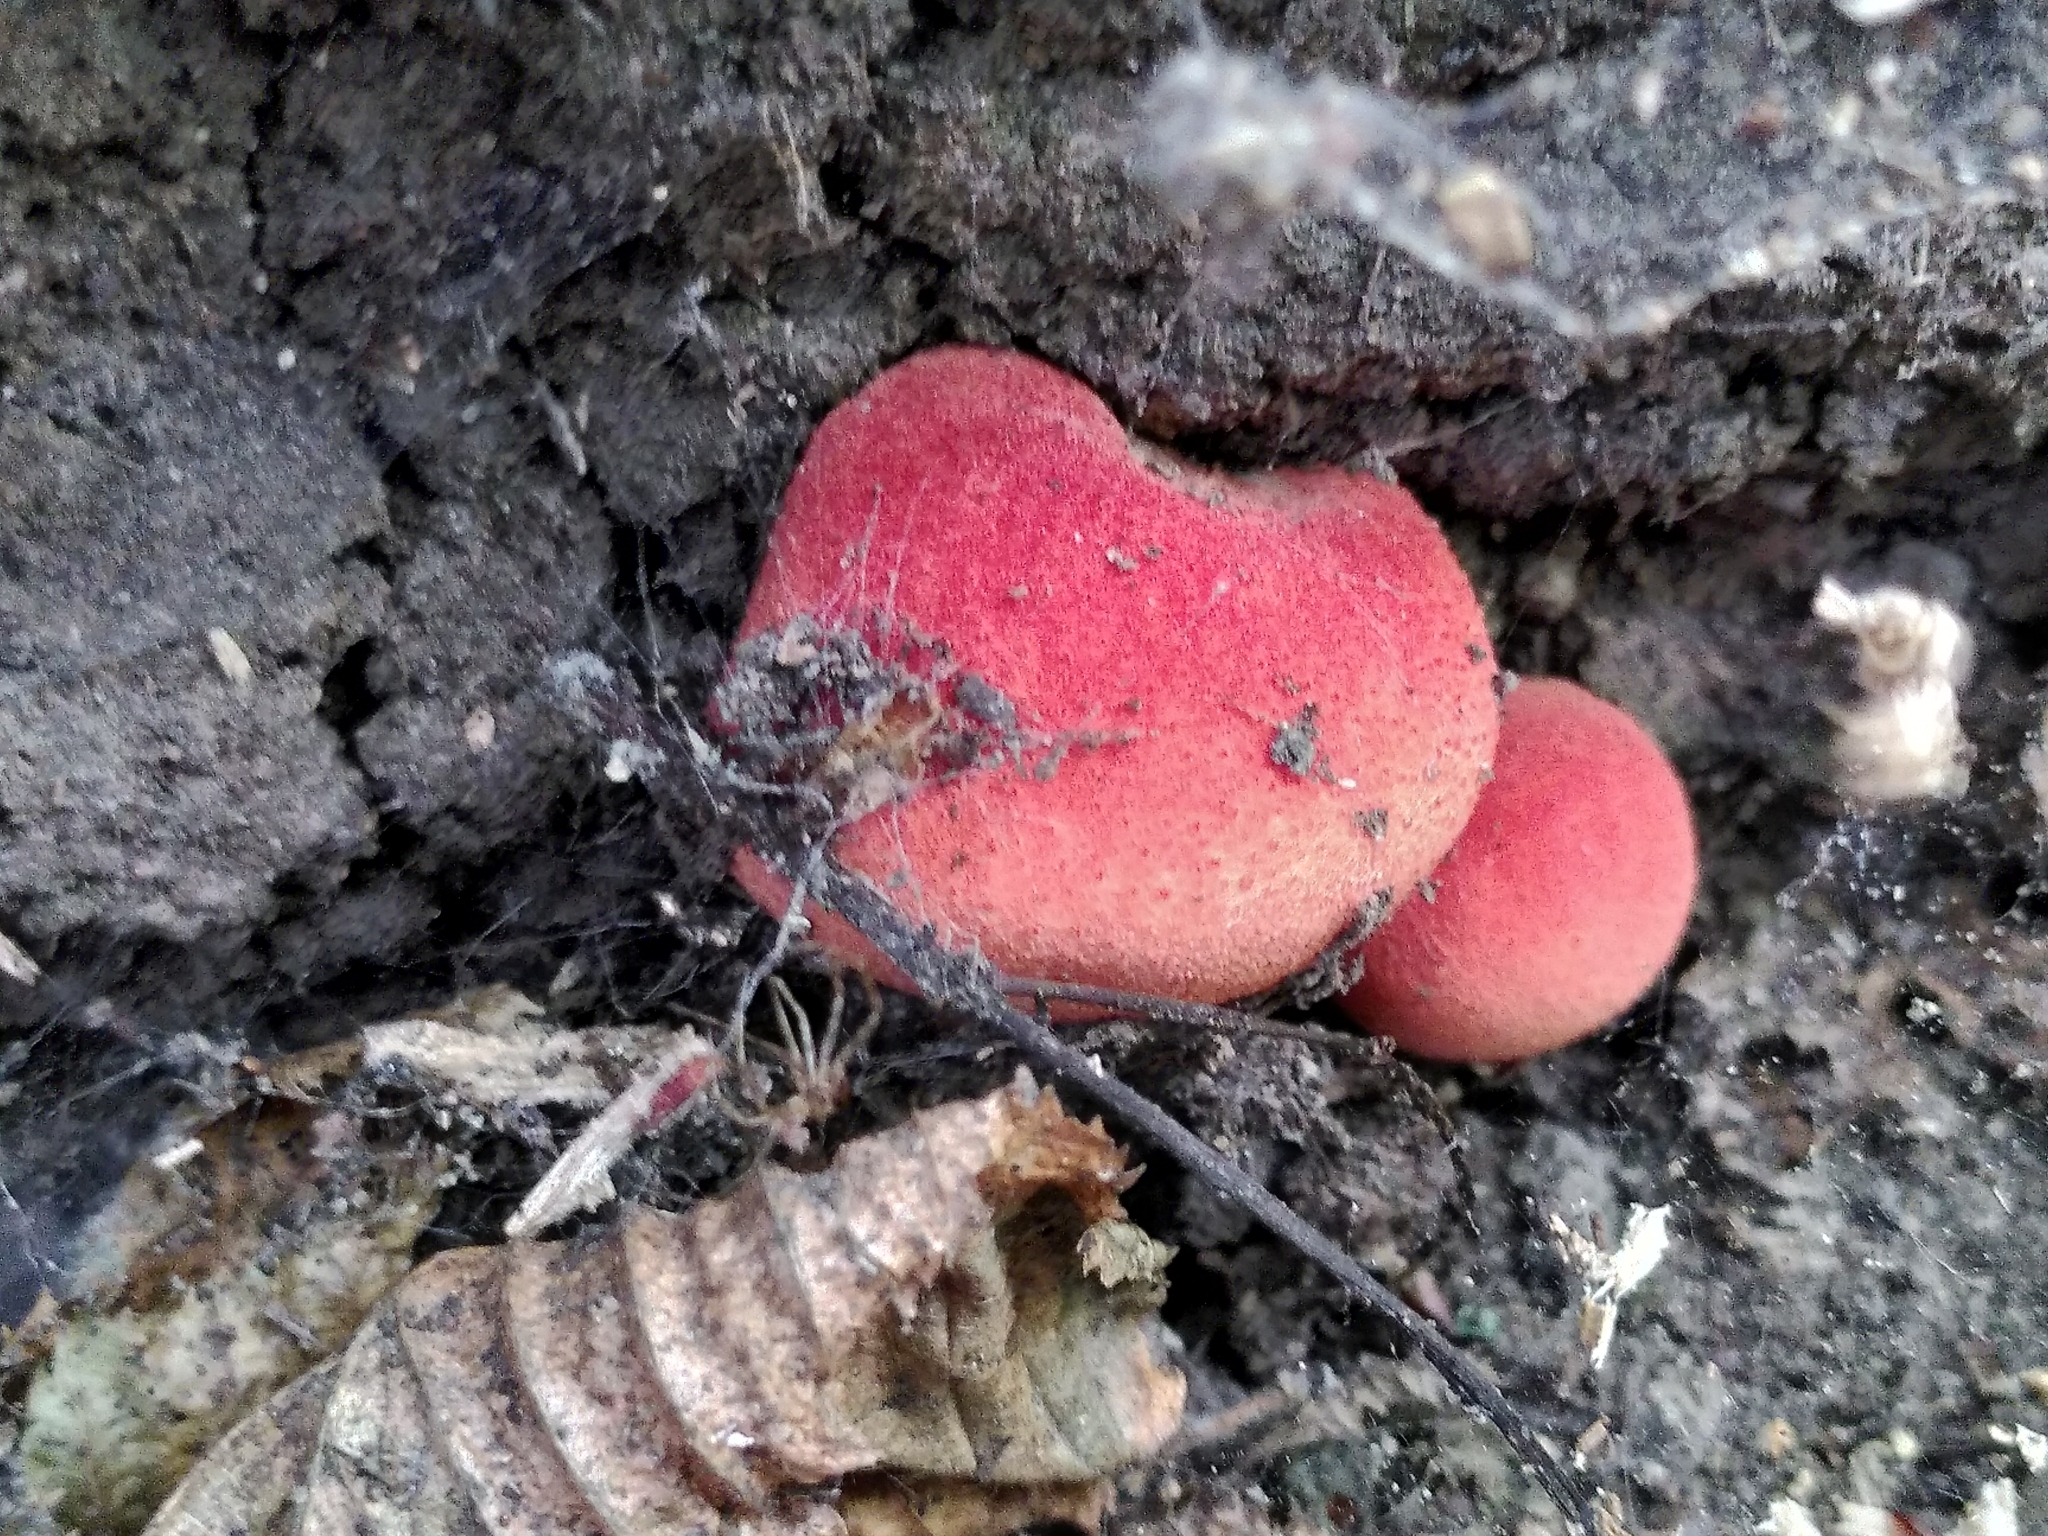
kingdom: Fungi
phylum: Basidiomycota
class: Agaricomycetes
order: Agaricales
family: Fistulinaceae
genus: Fistulina
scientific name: Fistulina hepatica
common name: Beef-steak fungus
